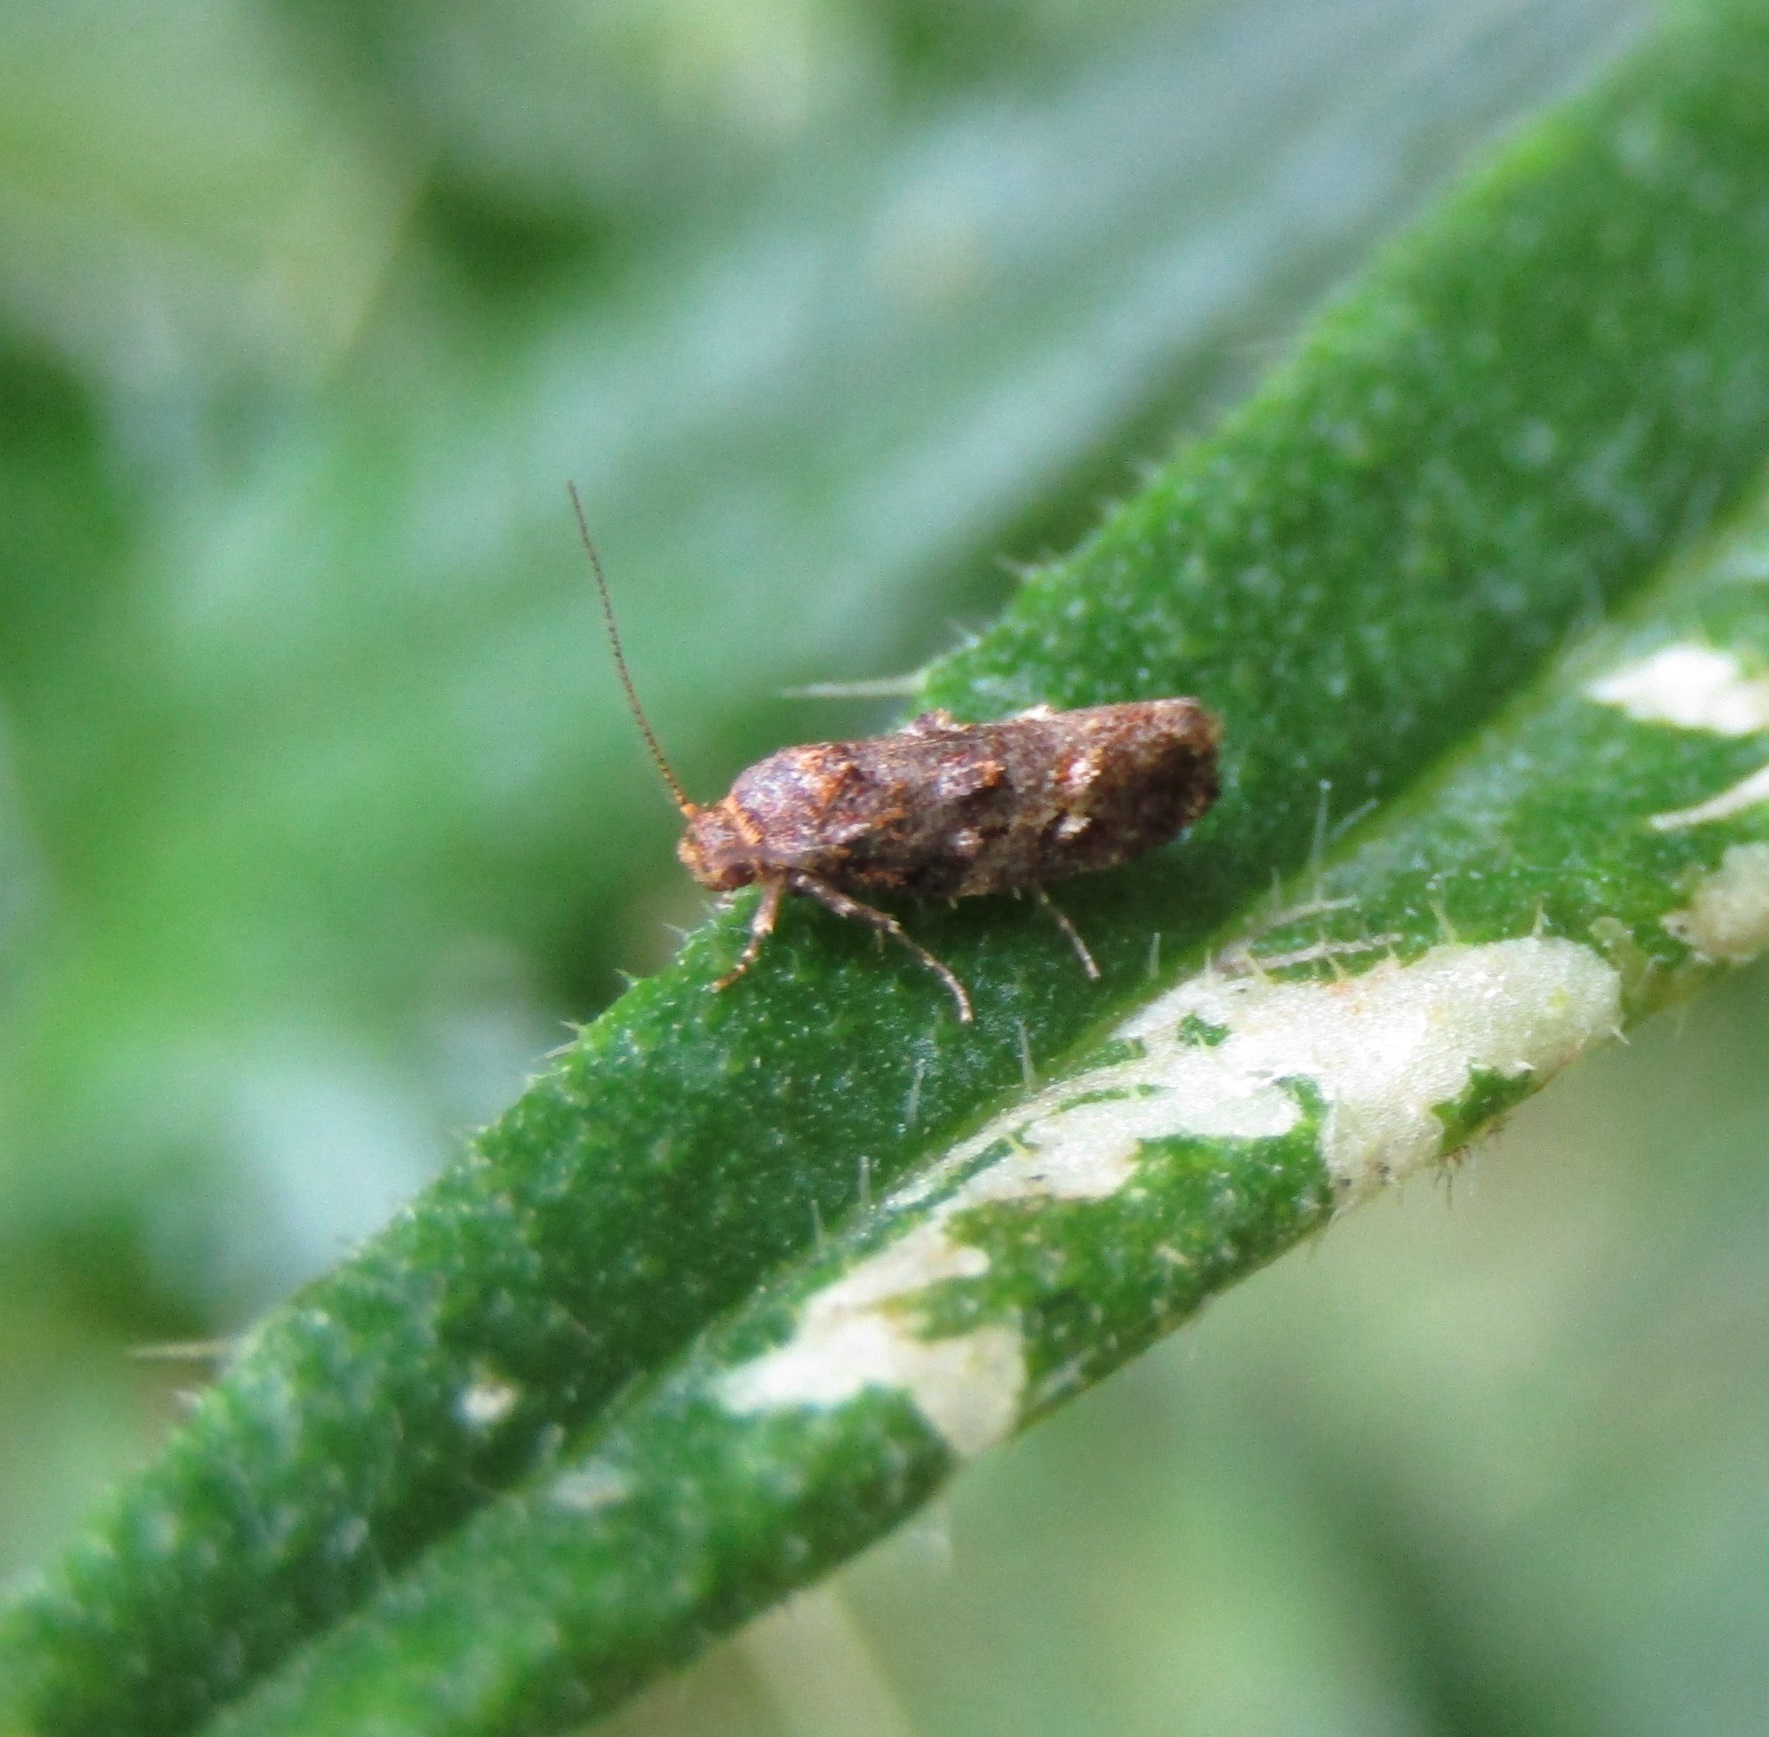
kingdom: Animalia
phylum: Arthropoda
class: Insecta
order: Lepidoptera
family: Oecophoridae
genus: Tingena
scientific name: Tingena eumenopa
